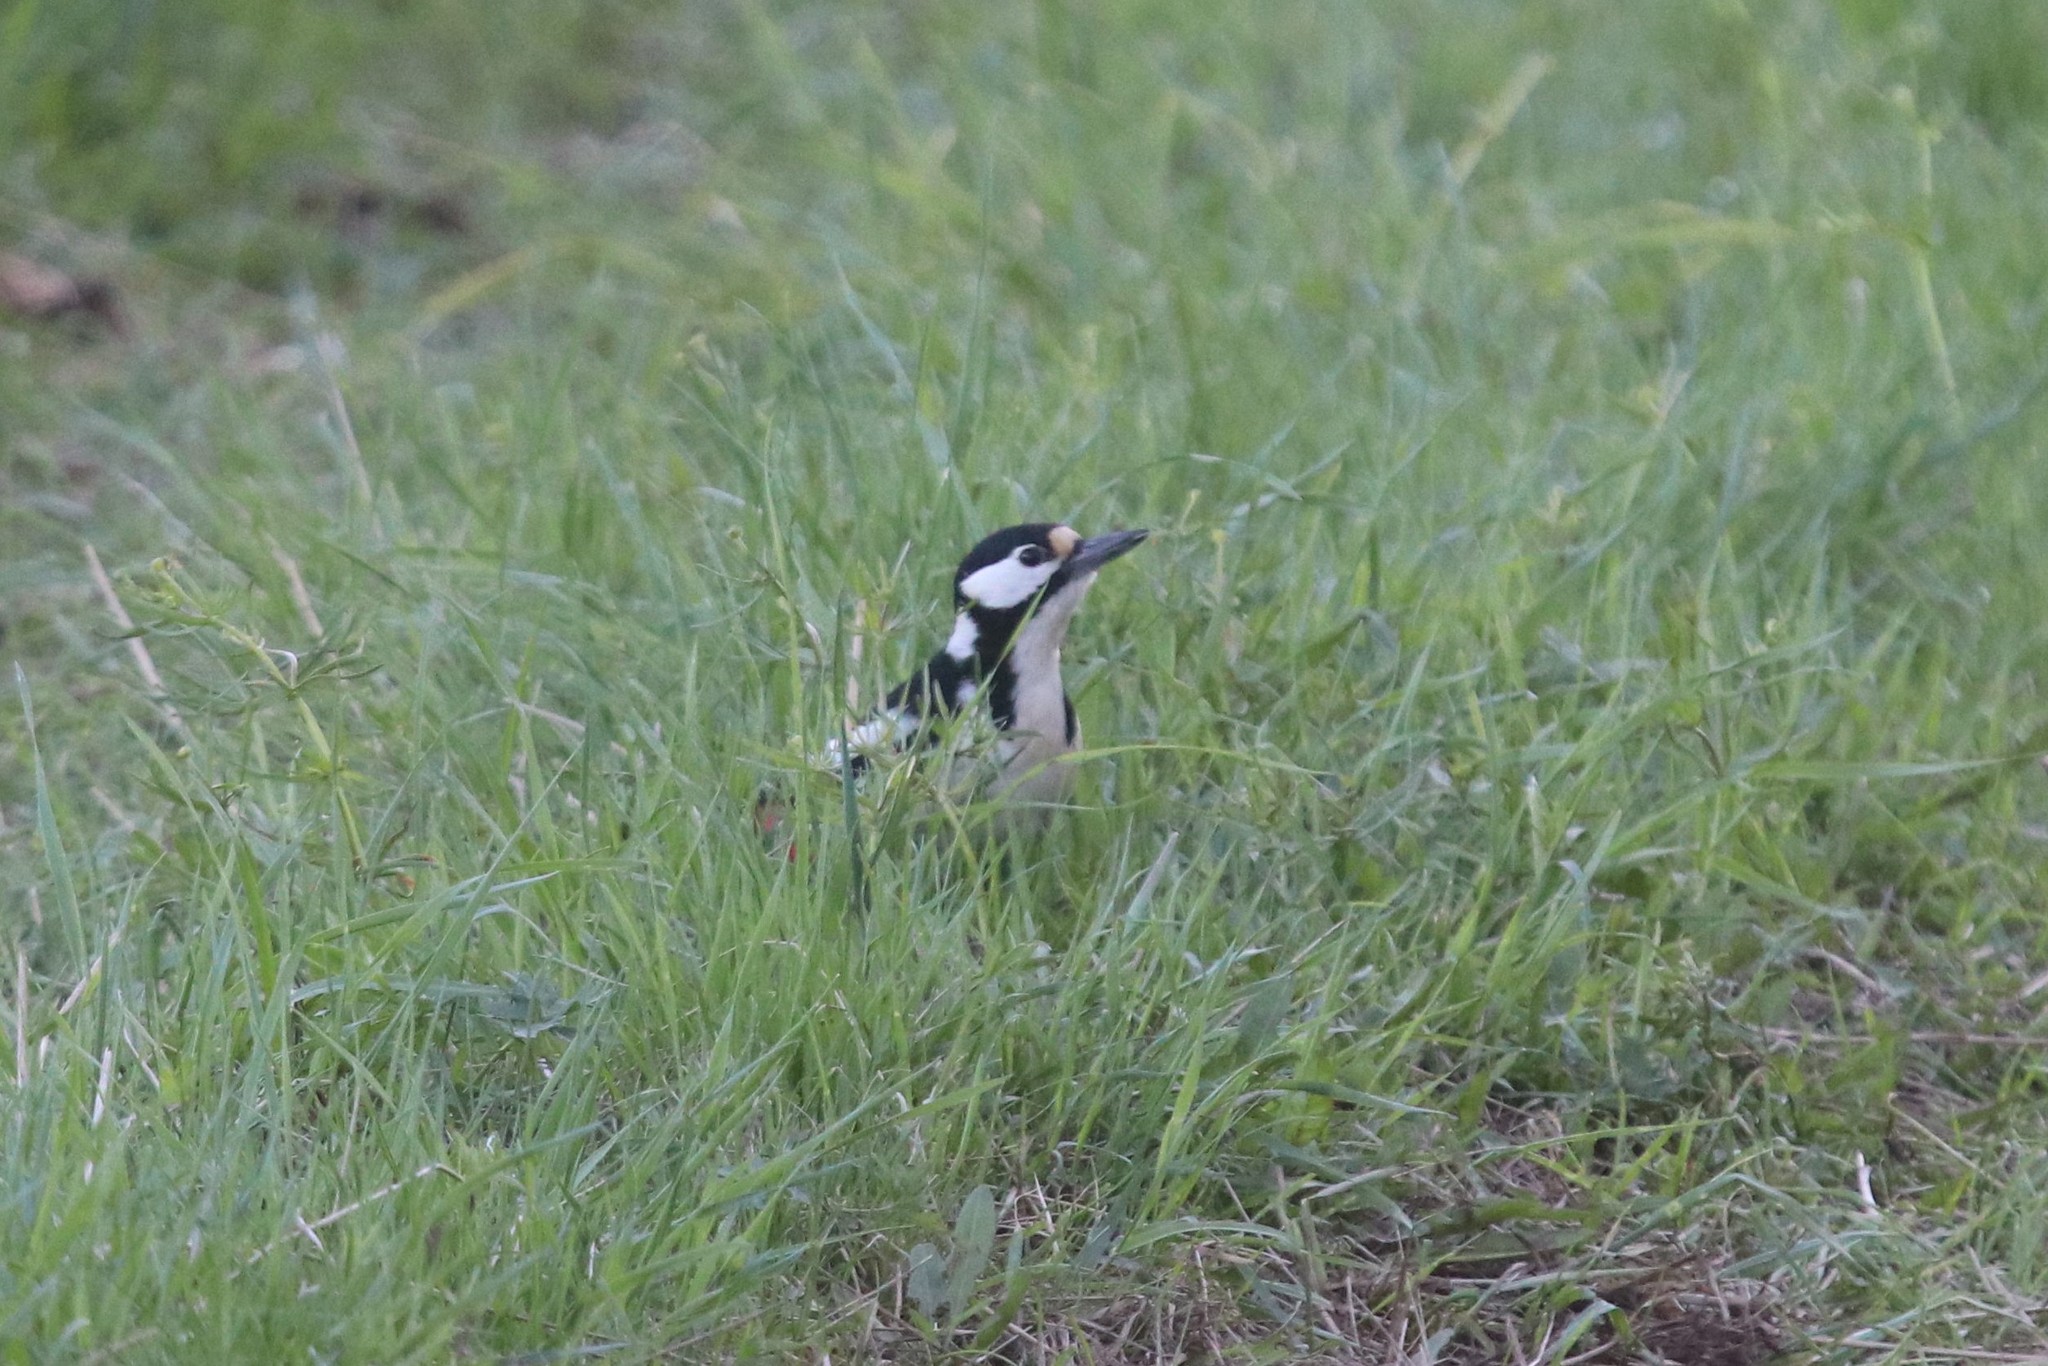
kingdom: Animalia
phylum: Chordata
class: Aves
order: Piciformes
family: Picidae
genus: Dendrocopos
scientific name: Dendrocopos major
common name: Great spotted woodpecker
